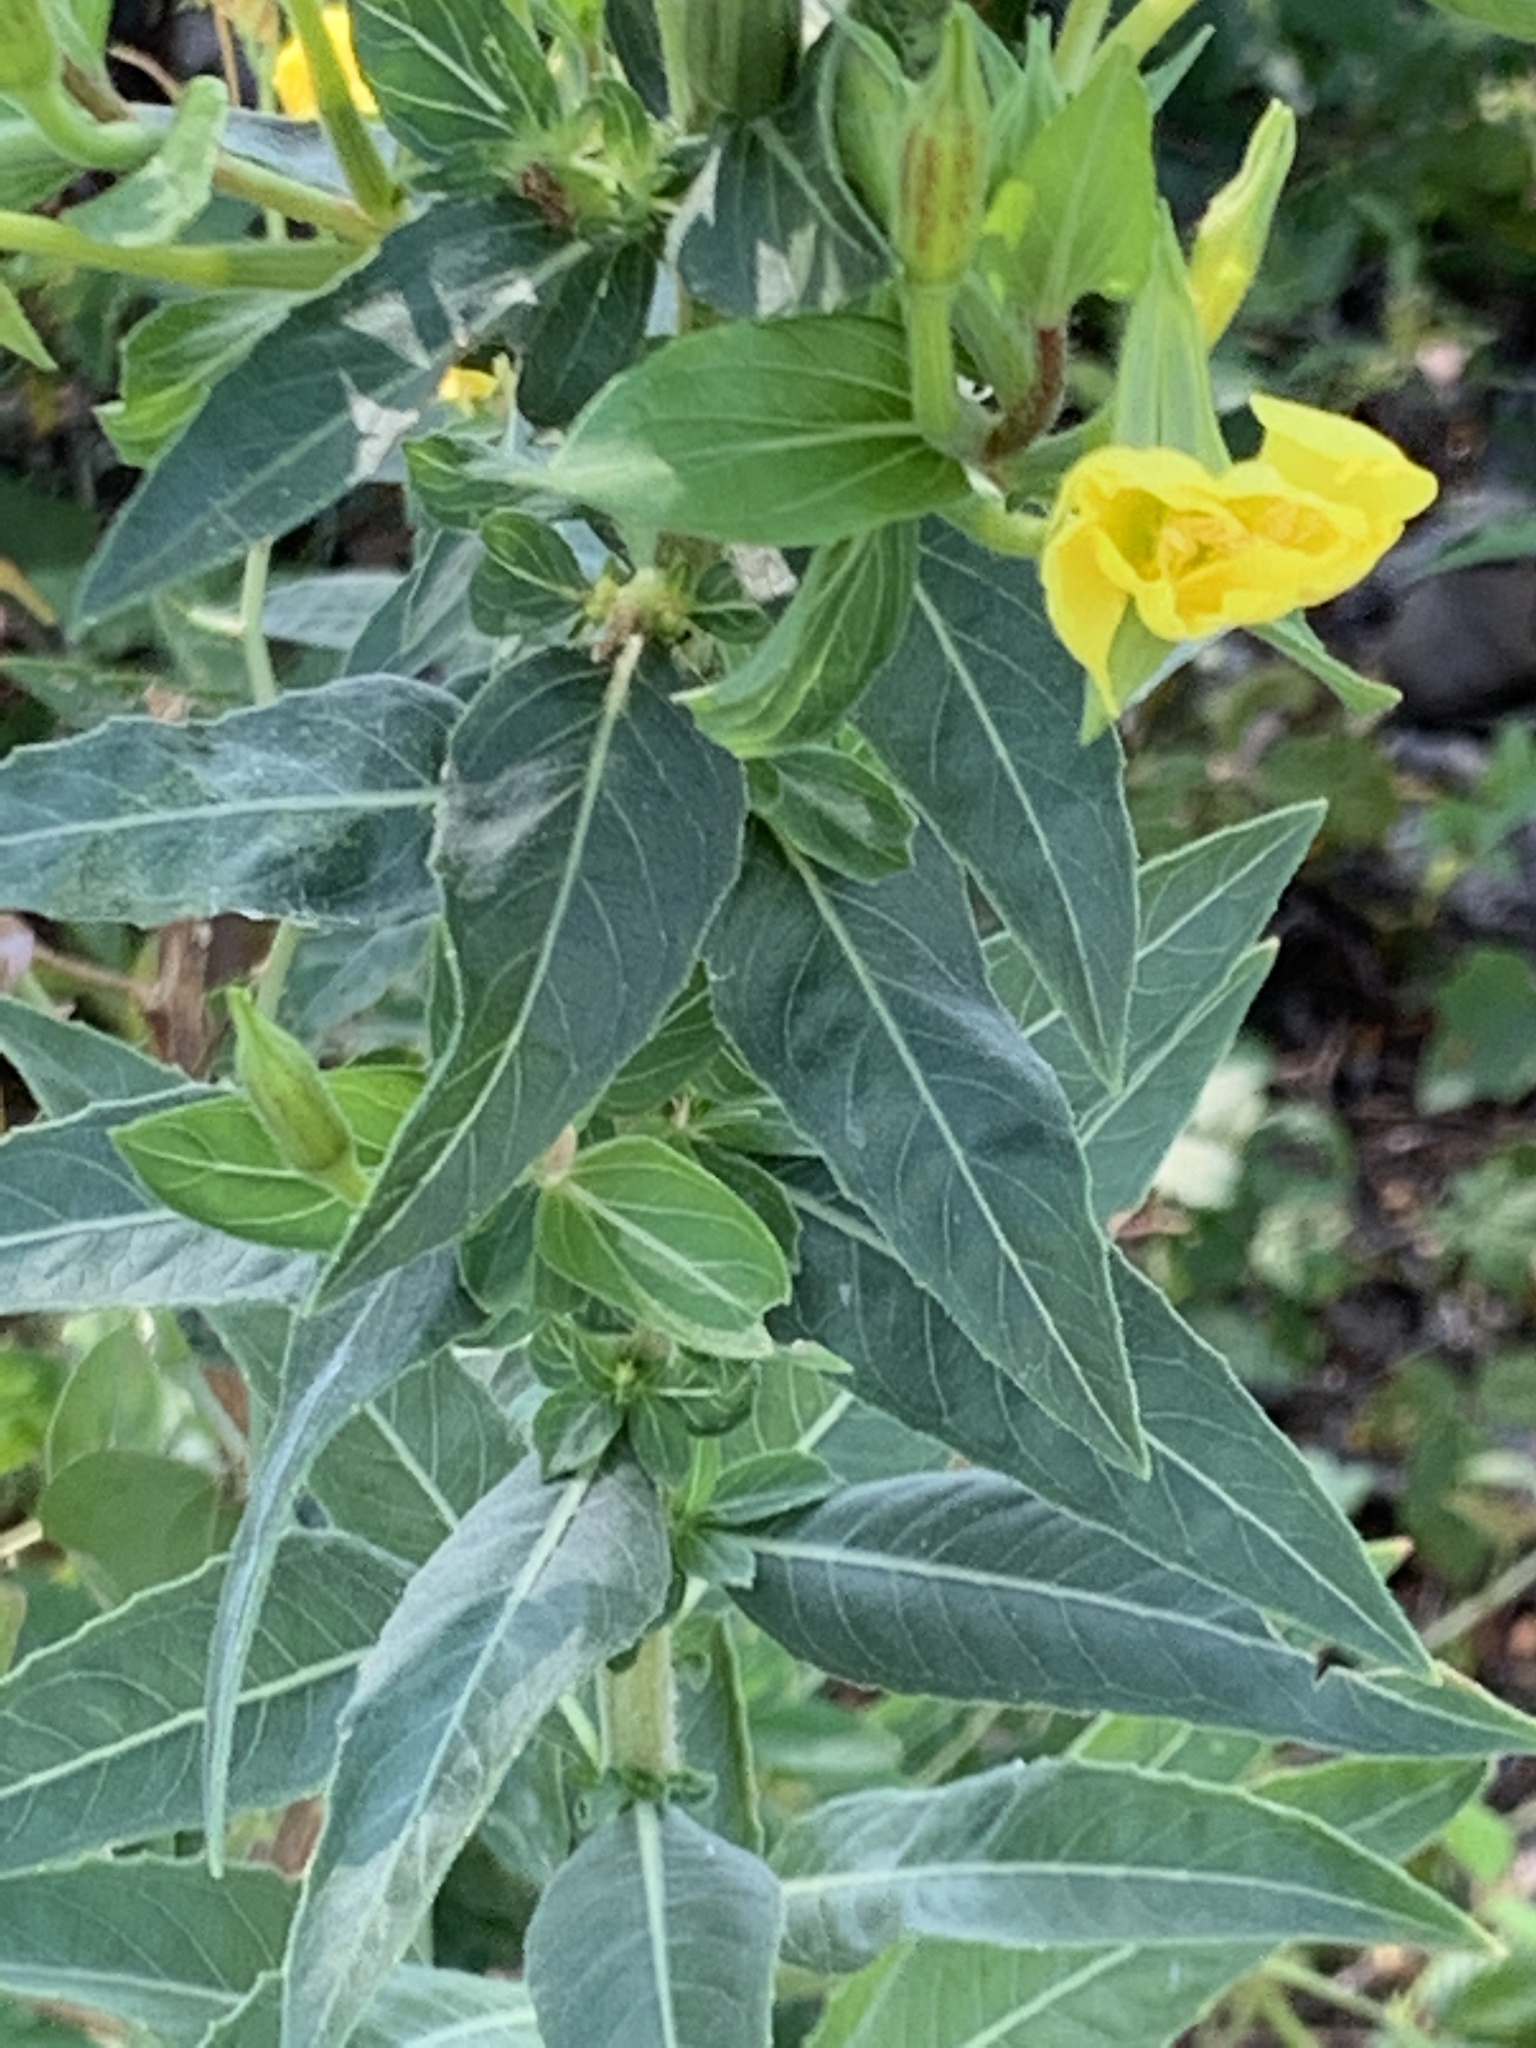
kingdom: Plantae
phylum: Tracheophyta
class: Magnoliopsida
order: Myrtales
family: Onagraceae
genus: Oenothera
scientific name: Oenothera biennis
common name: Common evening-primrose
